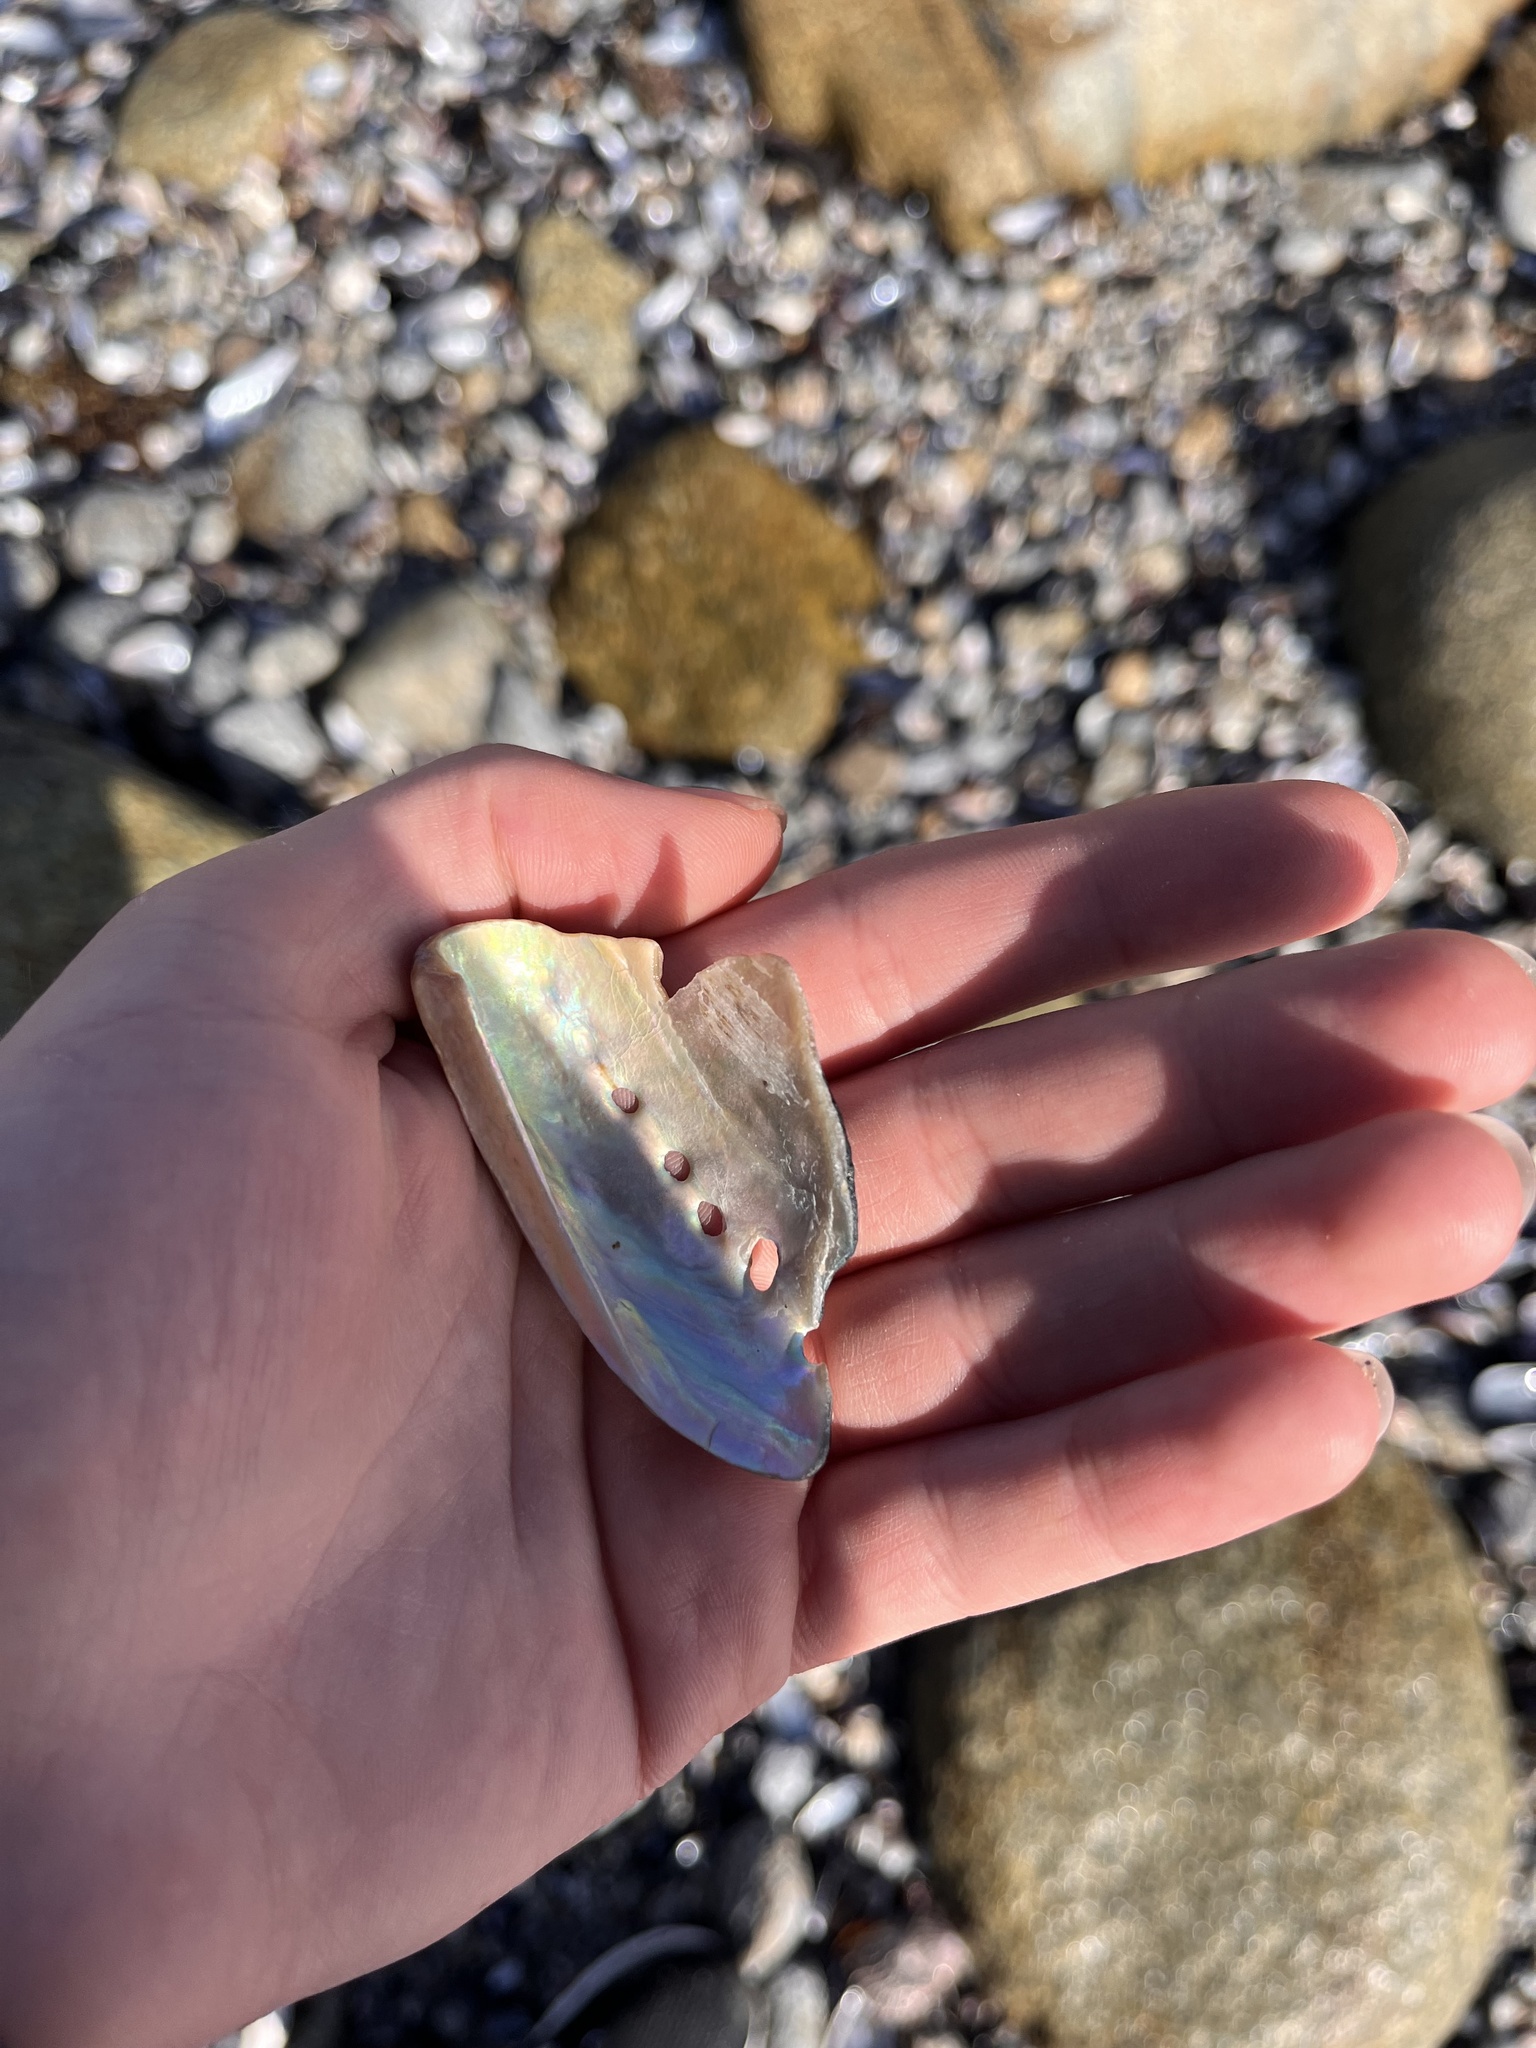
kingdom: Animalia
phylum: Mollusca
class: Gastropoda
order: Lepetellida
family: Haliotidae
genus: Haliotis
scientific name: Haliotis cracherodii
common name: Black abalone
